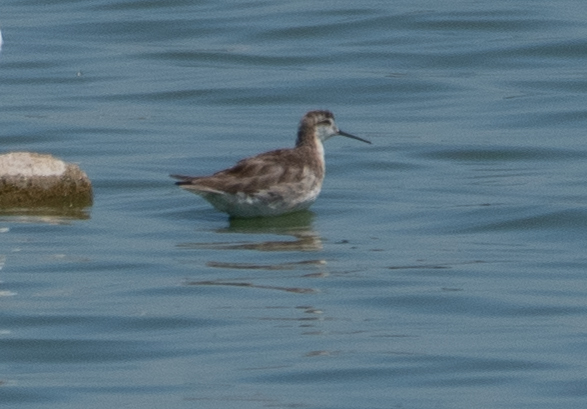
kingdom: Animalia
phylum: Chordata
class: Aves
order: Charadriiformes
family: Scolopacidae
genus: Phalaropus
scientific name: Phalaropus tricolor
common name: Wilson's phalarope
